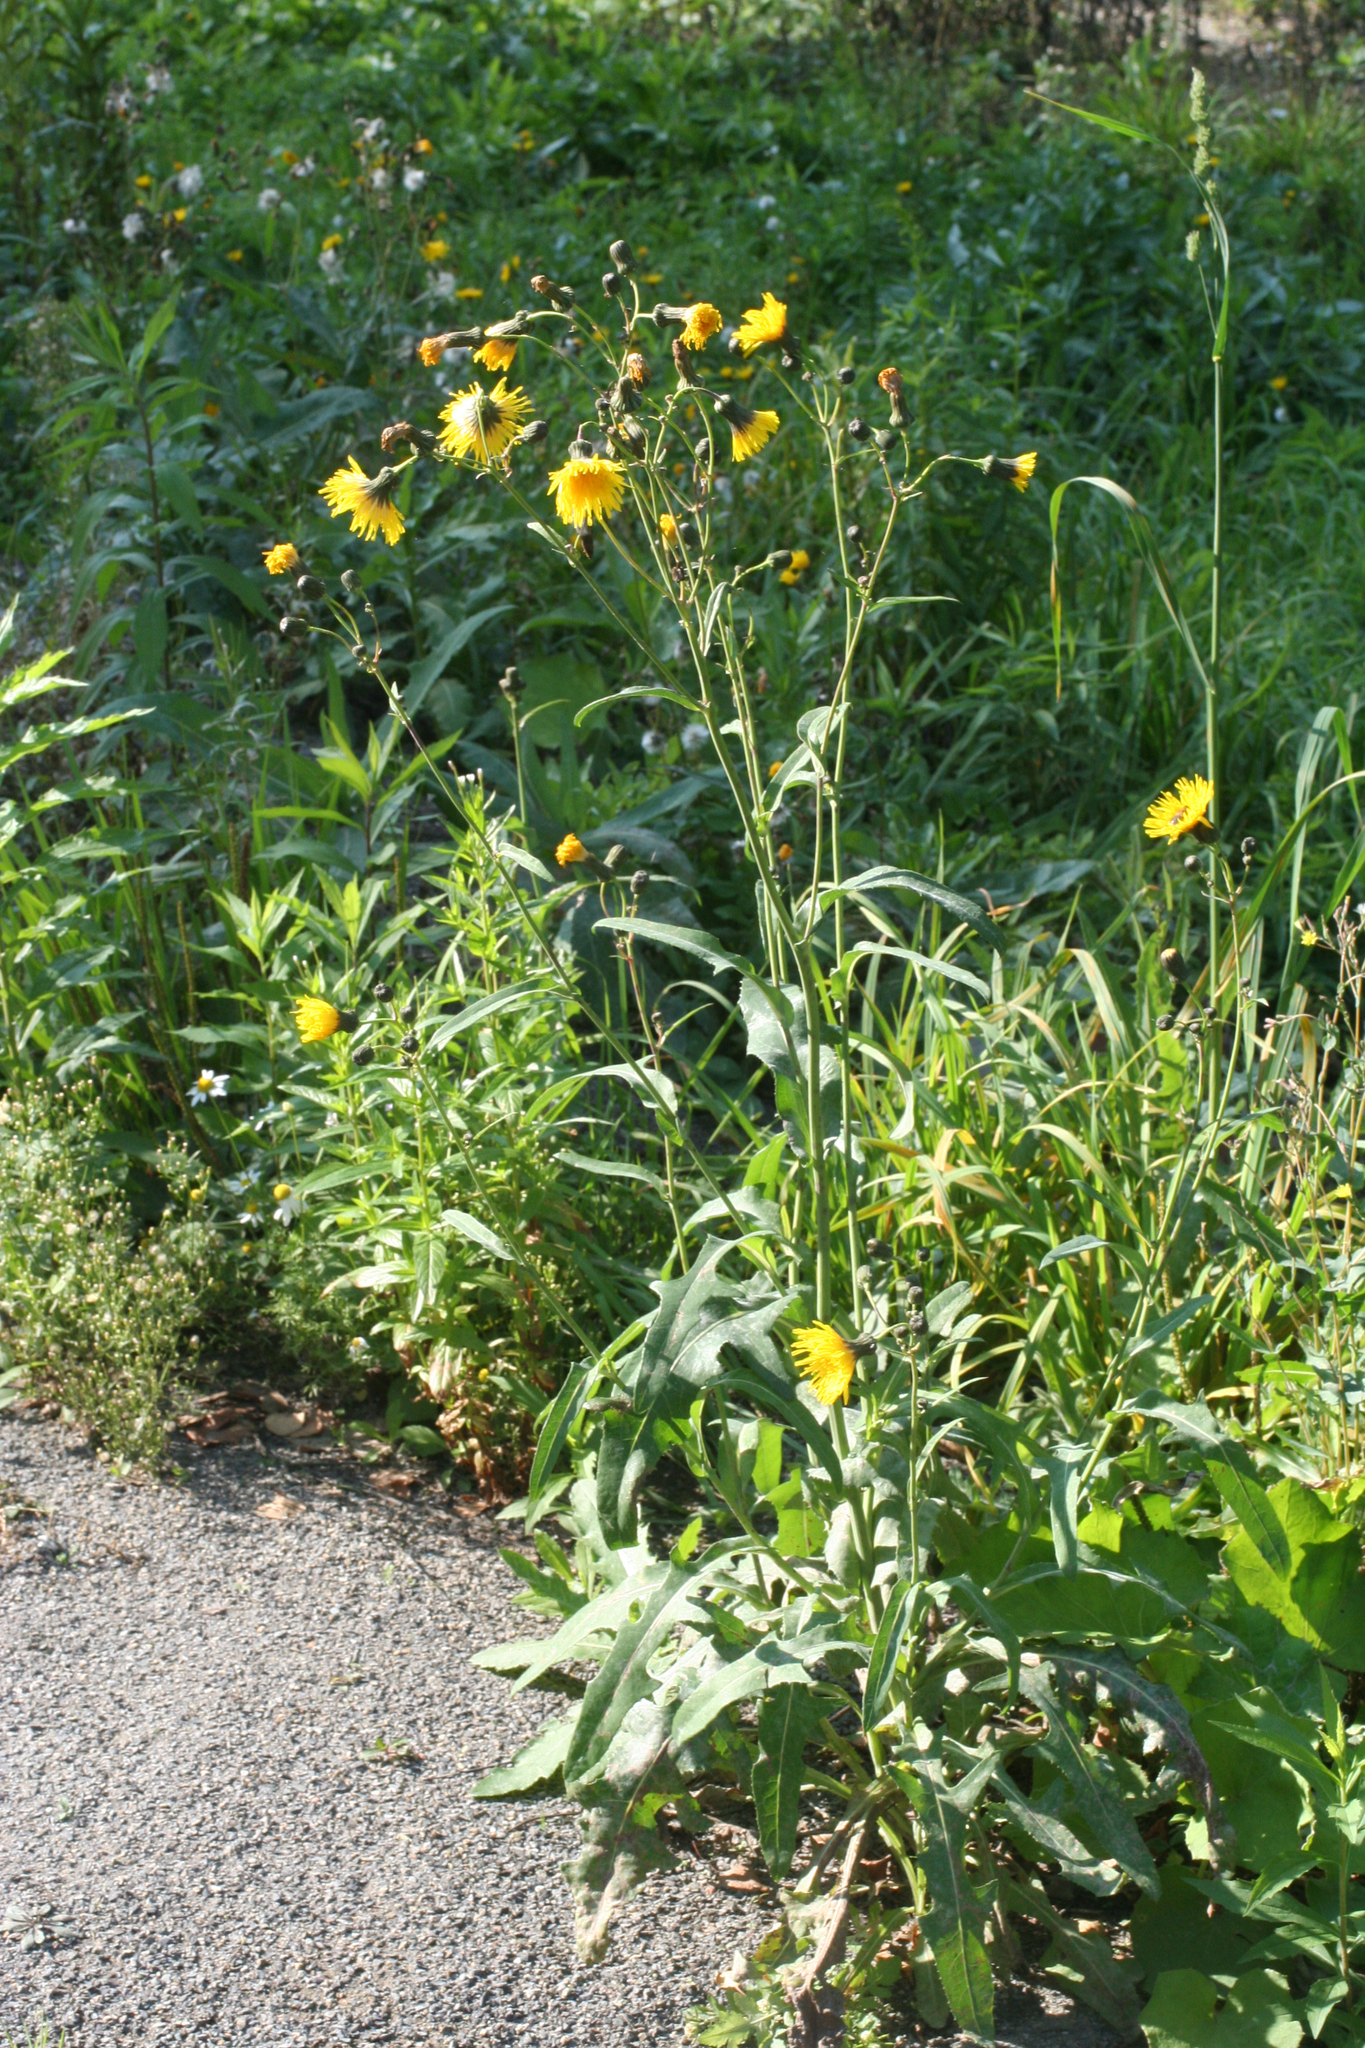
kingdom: Plantae
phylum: Tracheophyta
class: Magnoliopsida
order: Asterales
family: Asteraceae
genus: Sonchus
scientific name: Sonchus arvensis
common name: Perennial sow-thistle
